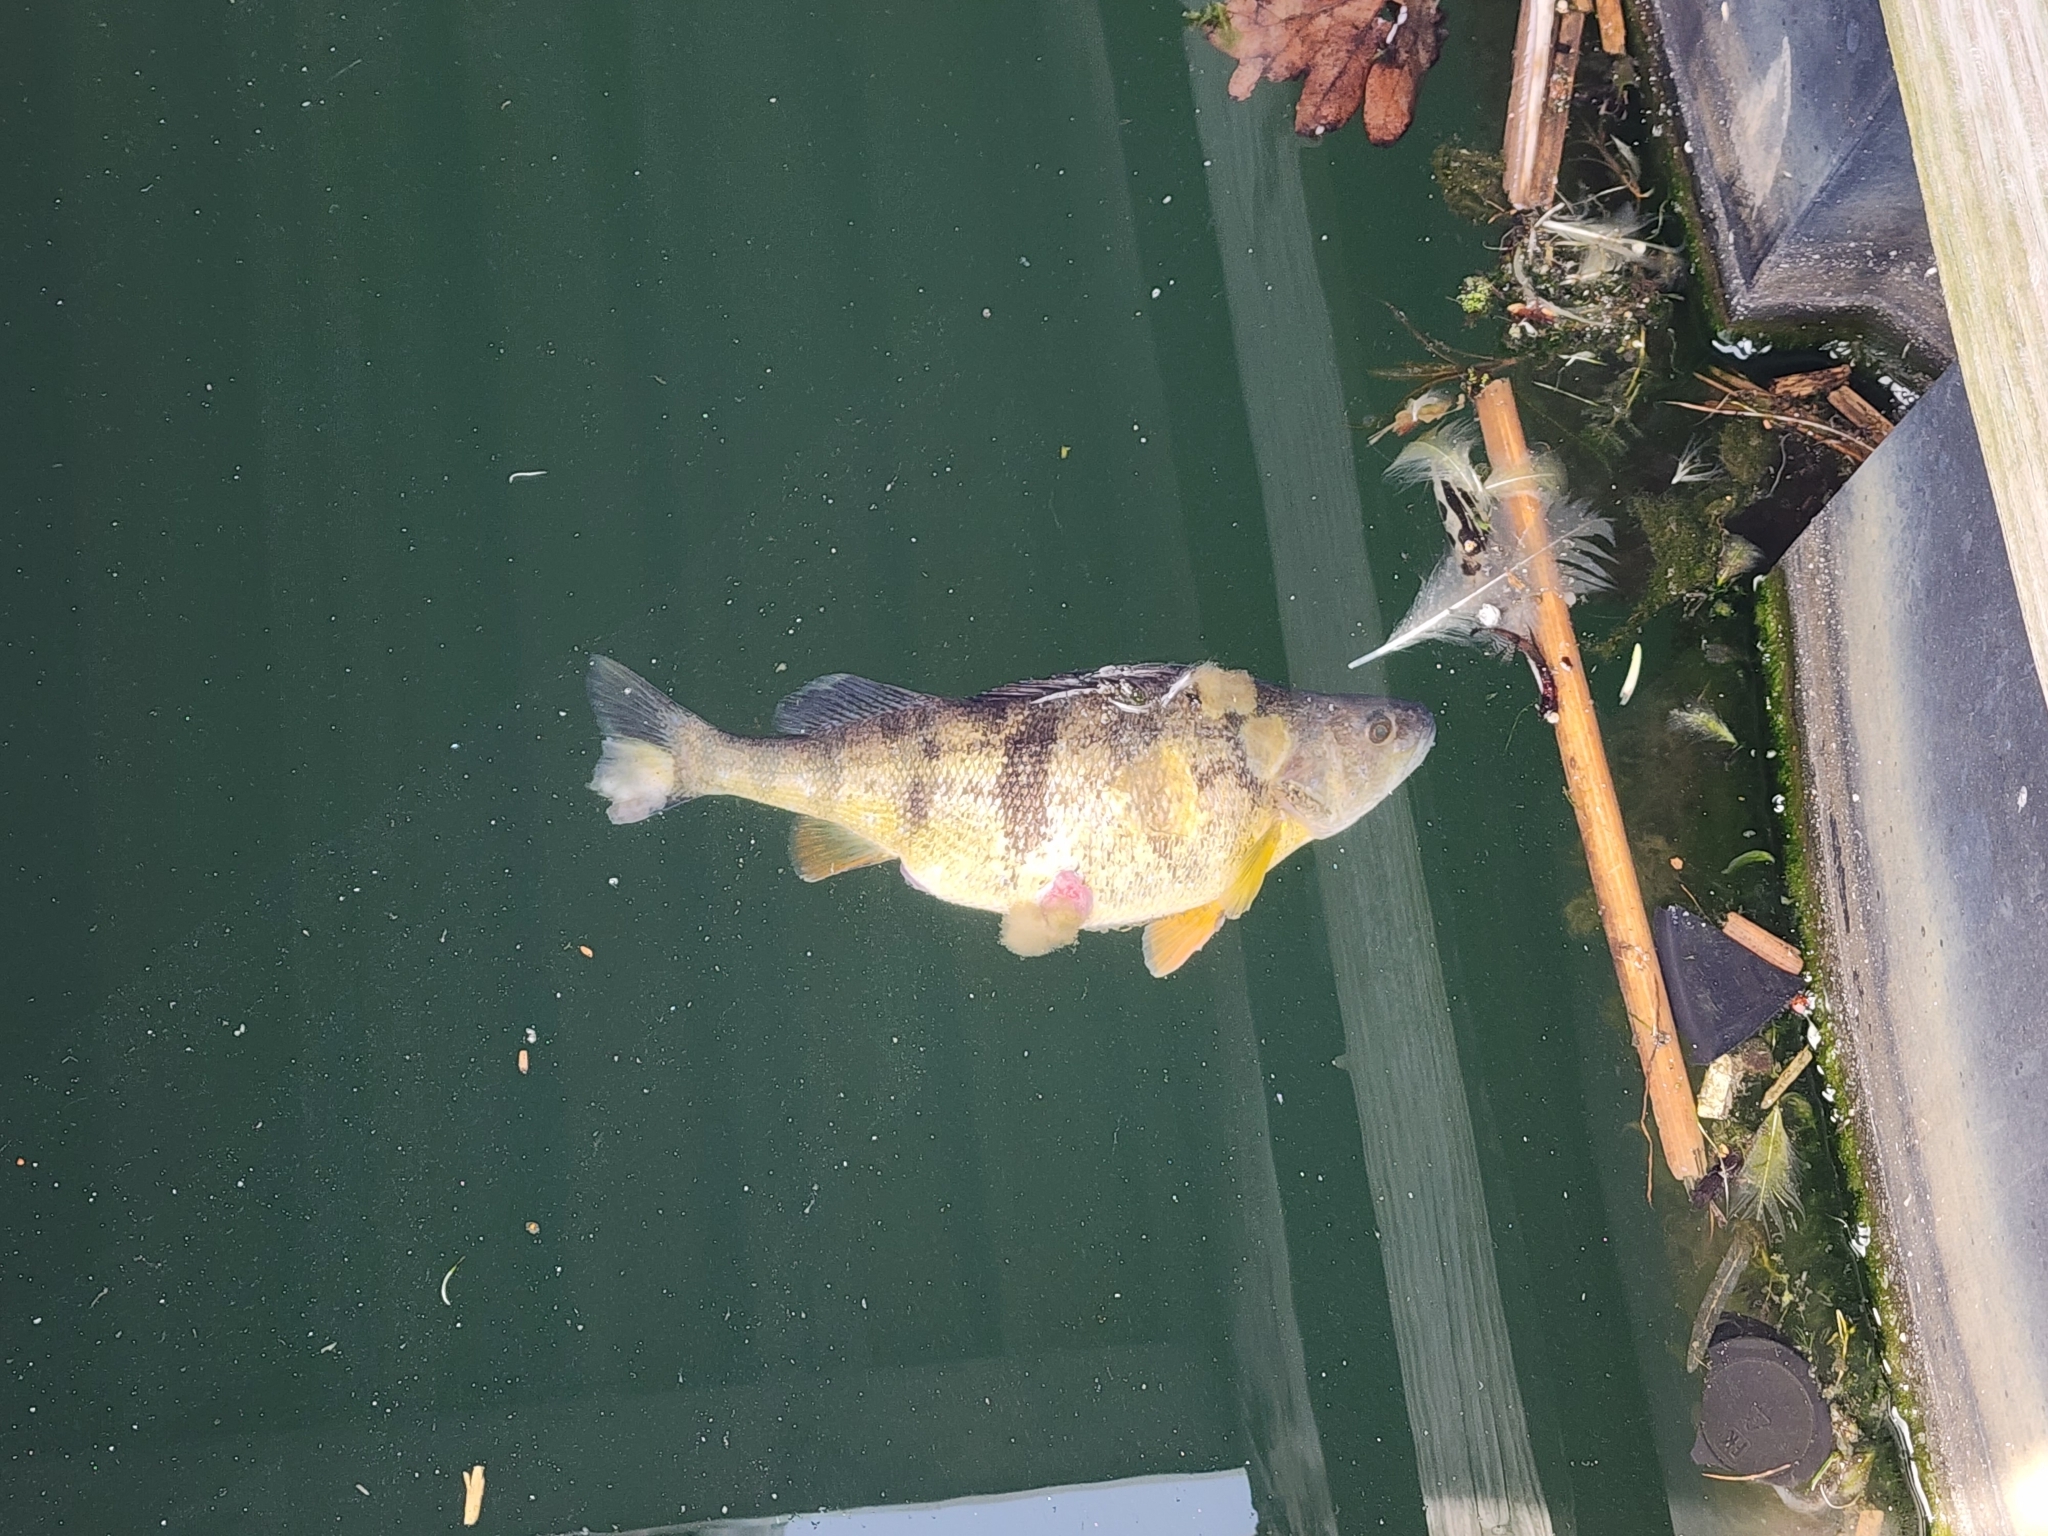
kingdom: Animalia
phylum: Chordata
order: Perciformes
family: Percidae
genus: Perca
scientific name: Perca flavescens
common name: Yellow perch
